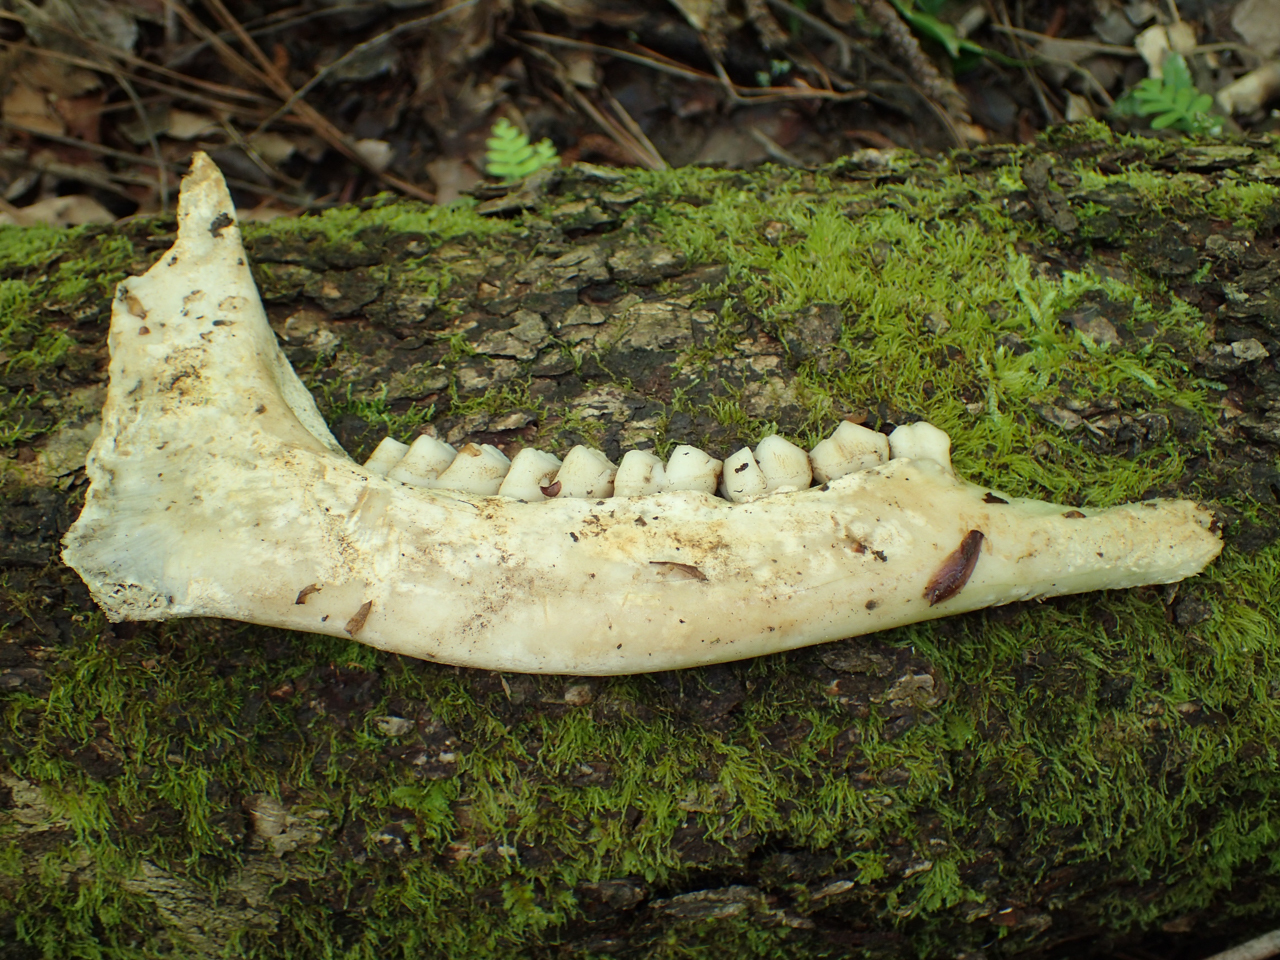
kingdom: Animalia
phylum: Chordata
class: Mammalia
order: Artiodactyla
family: Cervidae
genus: Odocoileus
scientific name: Odocoileus virginianus
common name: White-tailed deer
